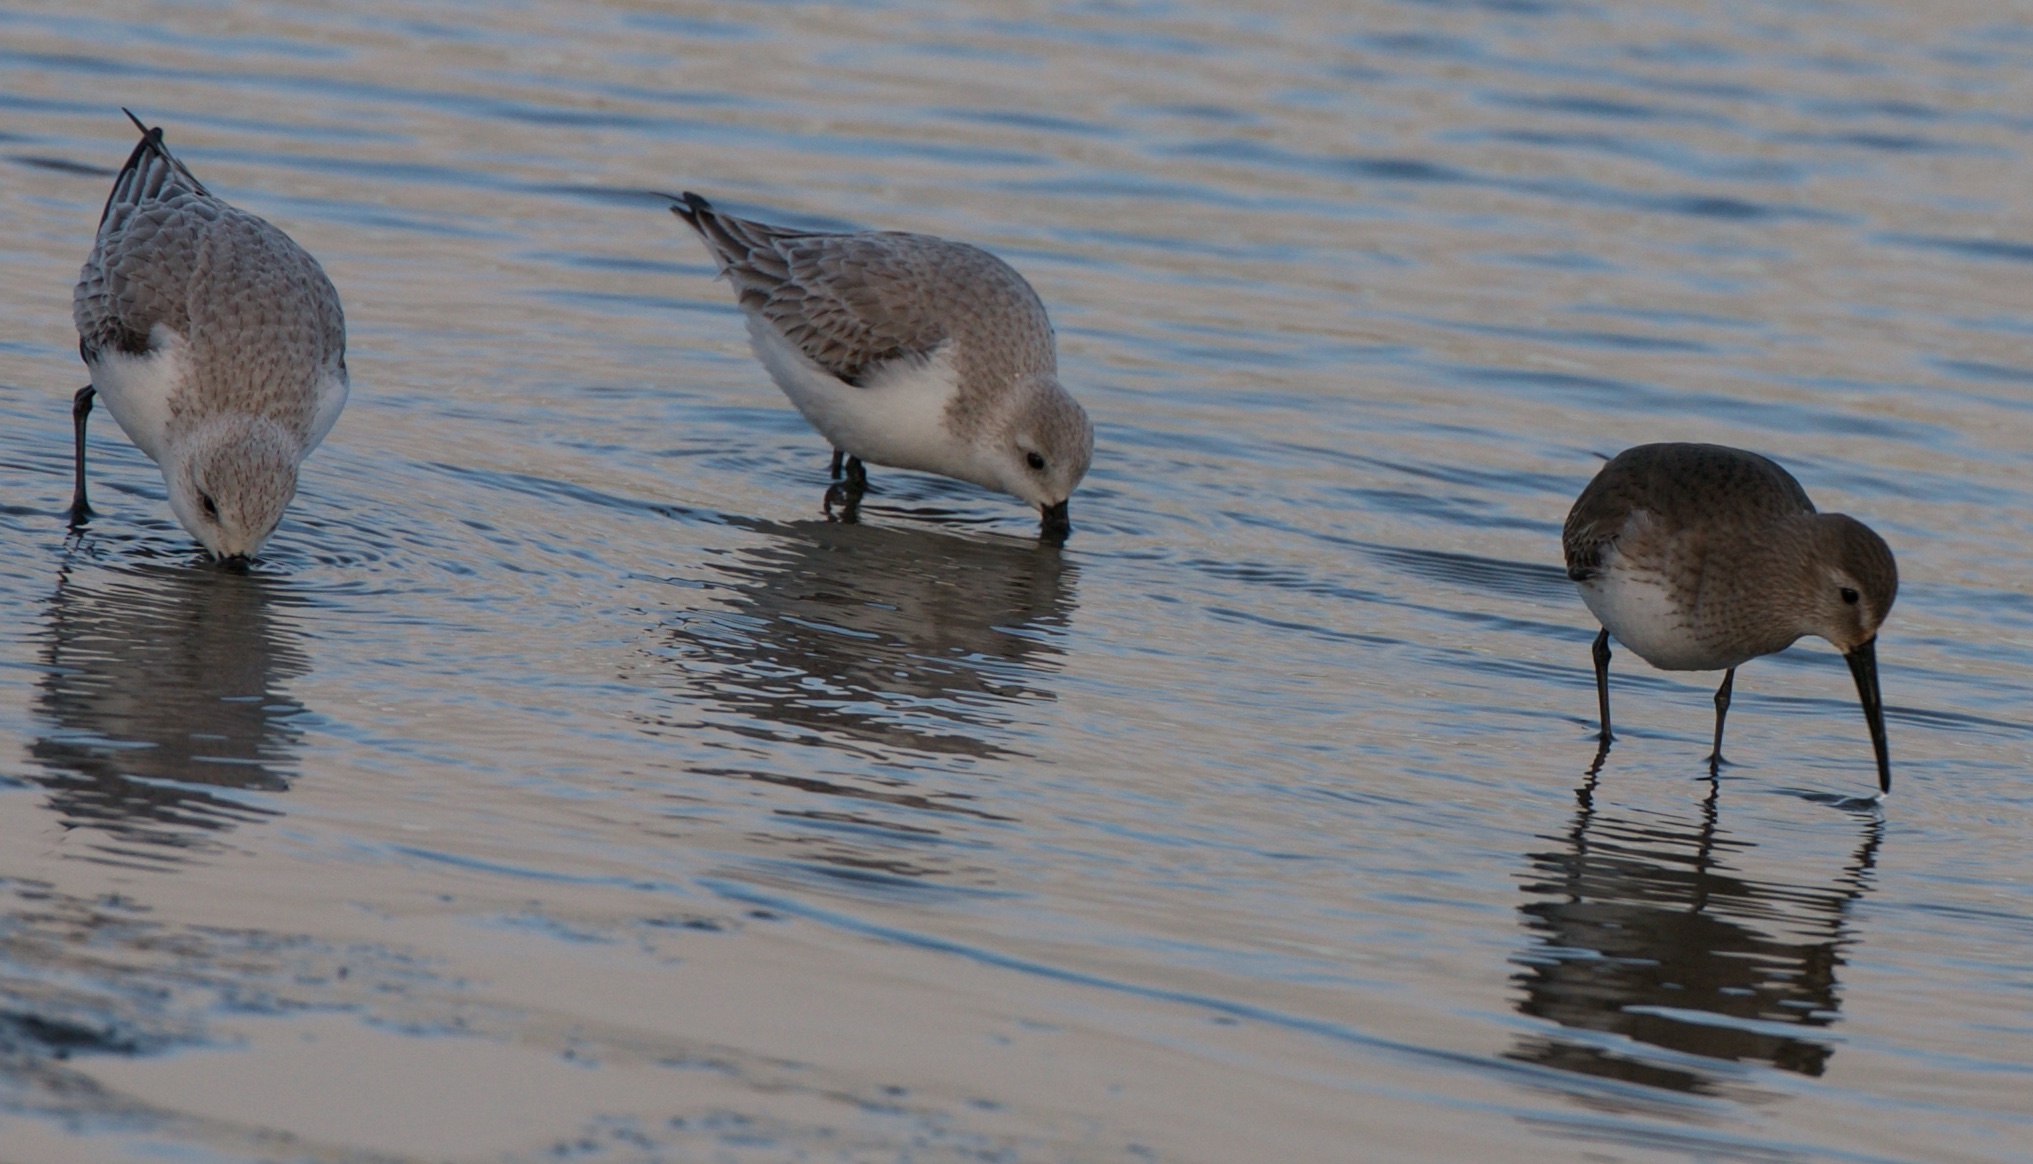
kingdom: Animalia
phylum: Chordata
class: Aves
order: Charadriiformes
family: Scolopacidae
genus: Calidris
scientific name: Calidris alba
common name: Sanderling
